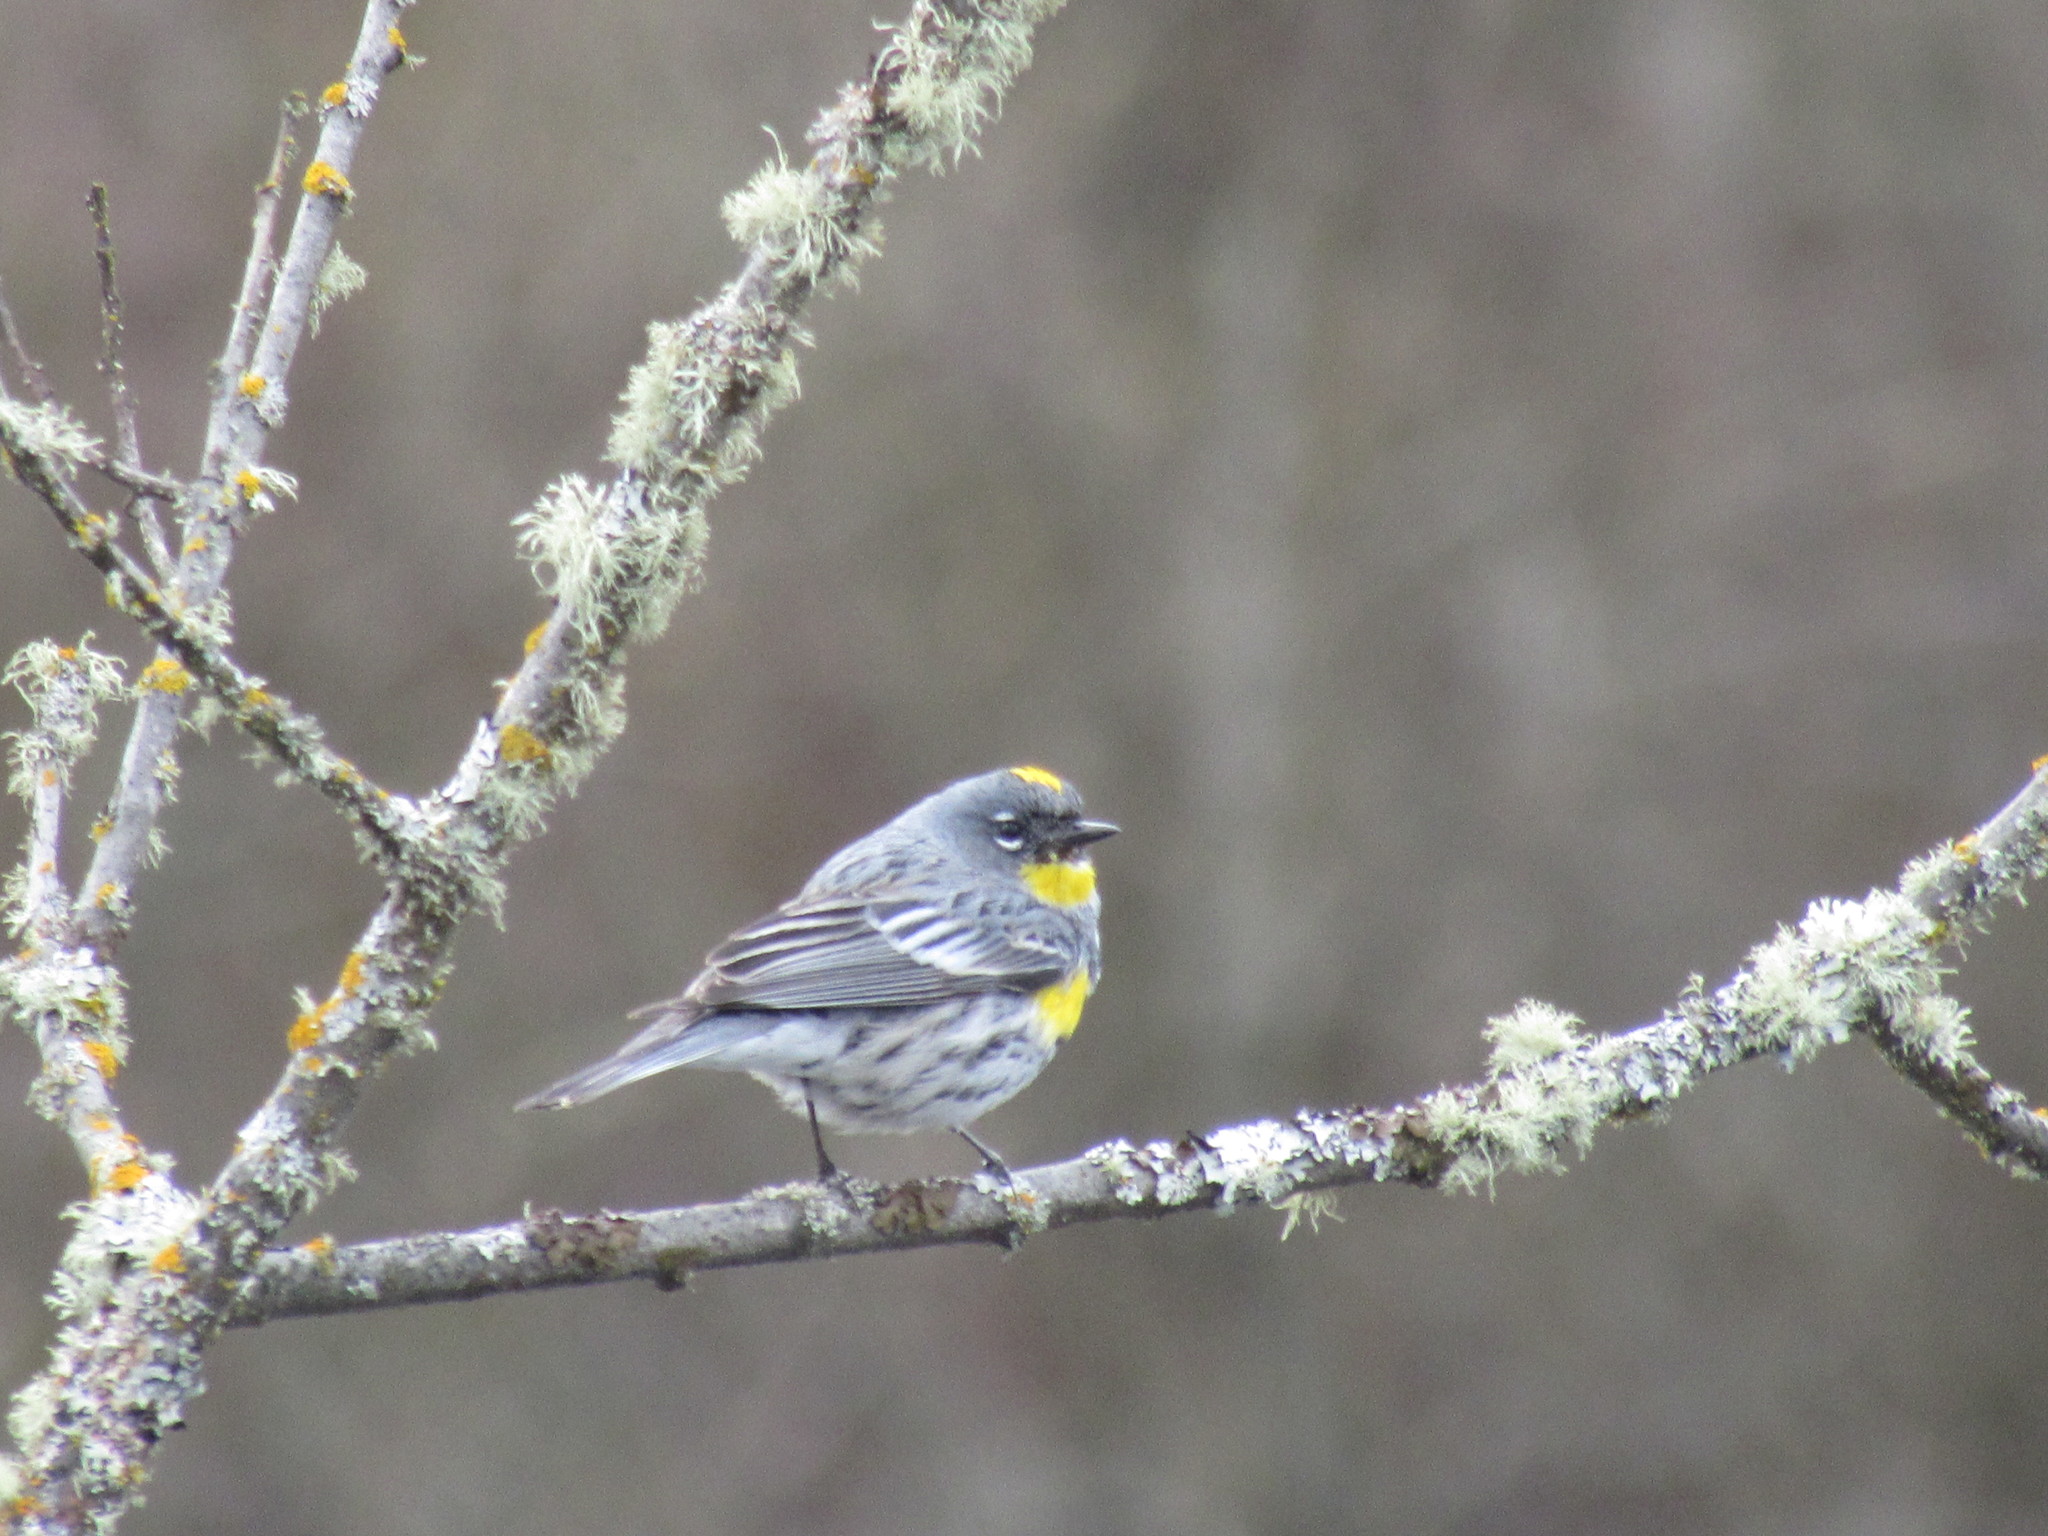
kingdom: Animalia
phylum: Chordata
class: Aves
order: Passeriformes
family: Parulidae
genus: Setophaga
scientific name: Setophaga coronata
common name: Myrtle warbler
